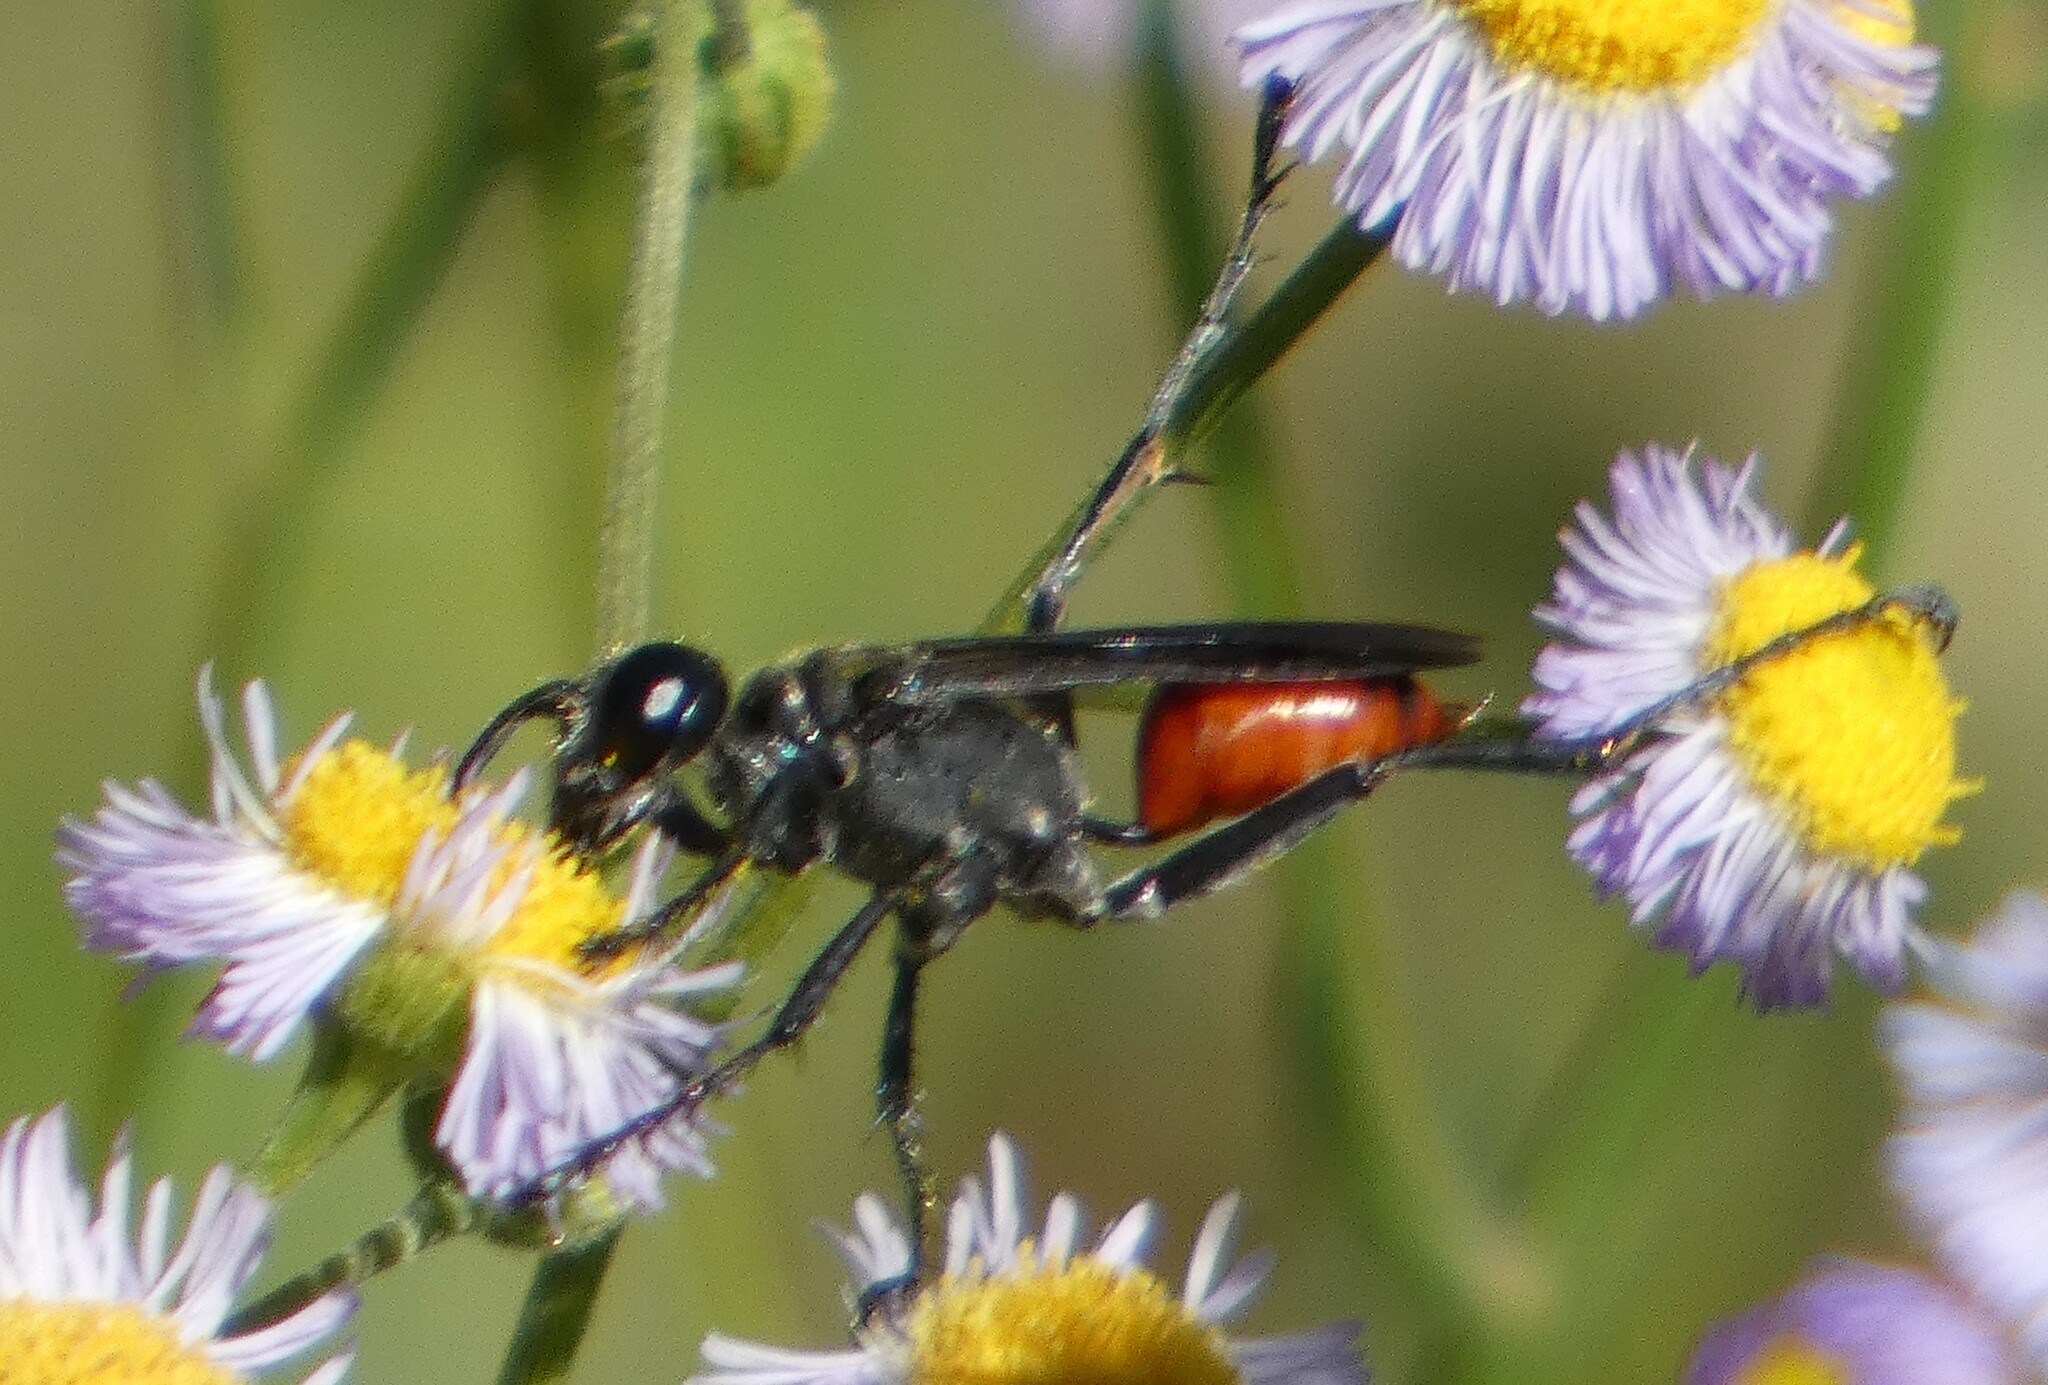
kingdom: Animalia
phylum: Arthropoda
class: Insecta
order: Hymenoptera
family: Sphecidae
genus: Prionyx
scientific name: Prionyx parkeri
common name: Parker's thread-waisted wasp
